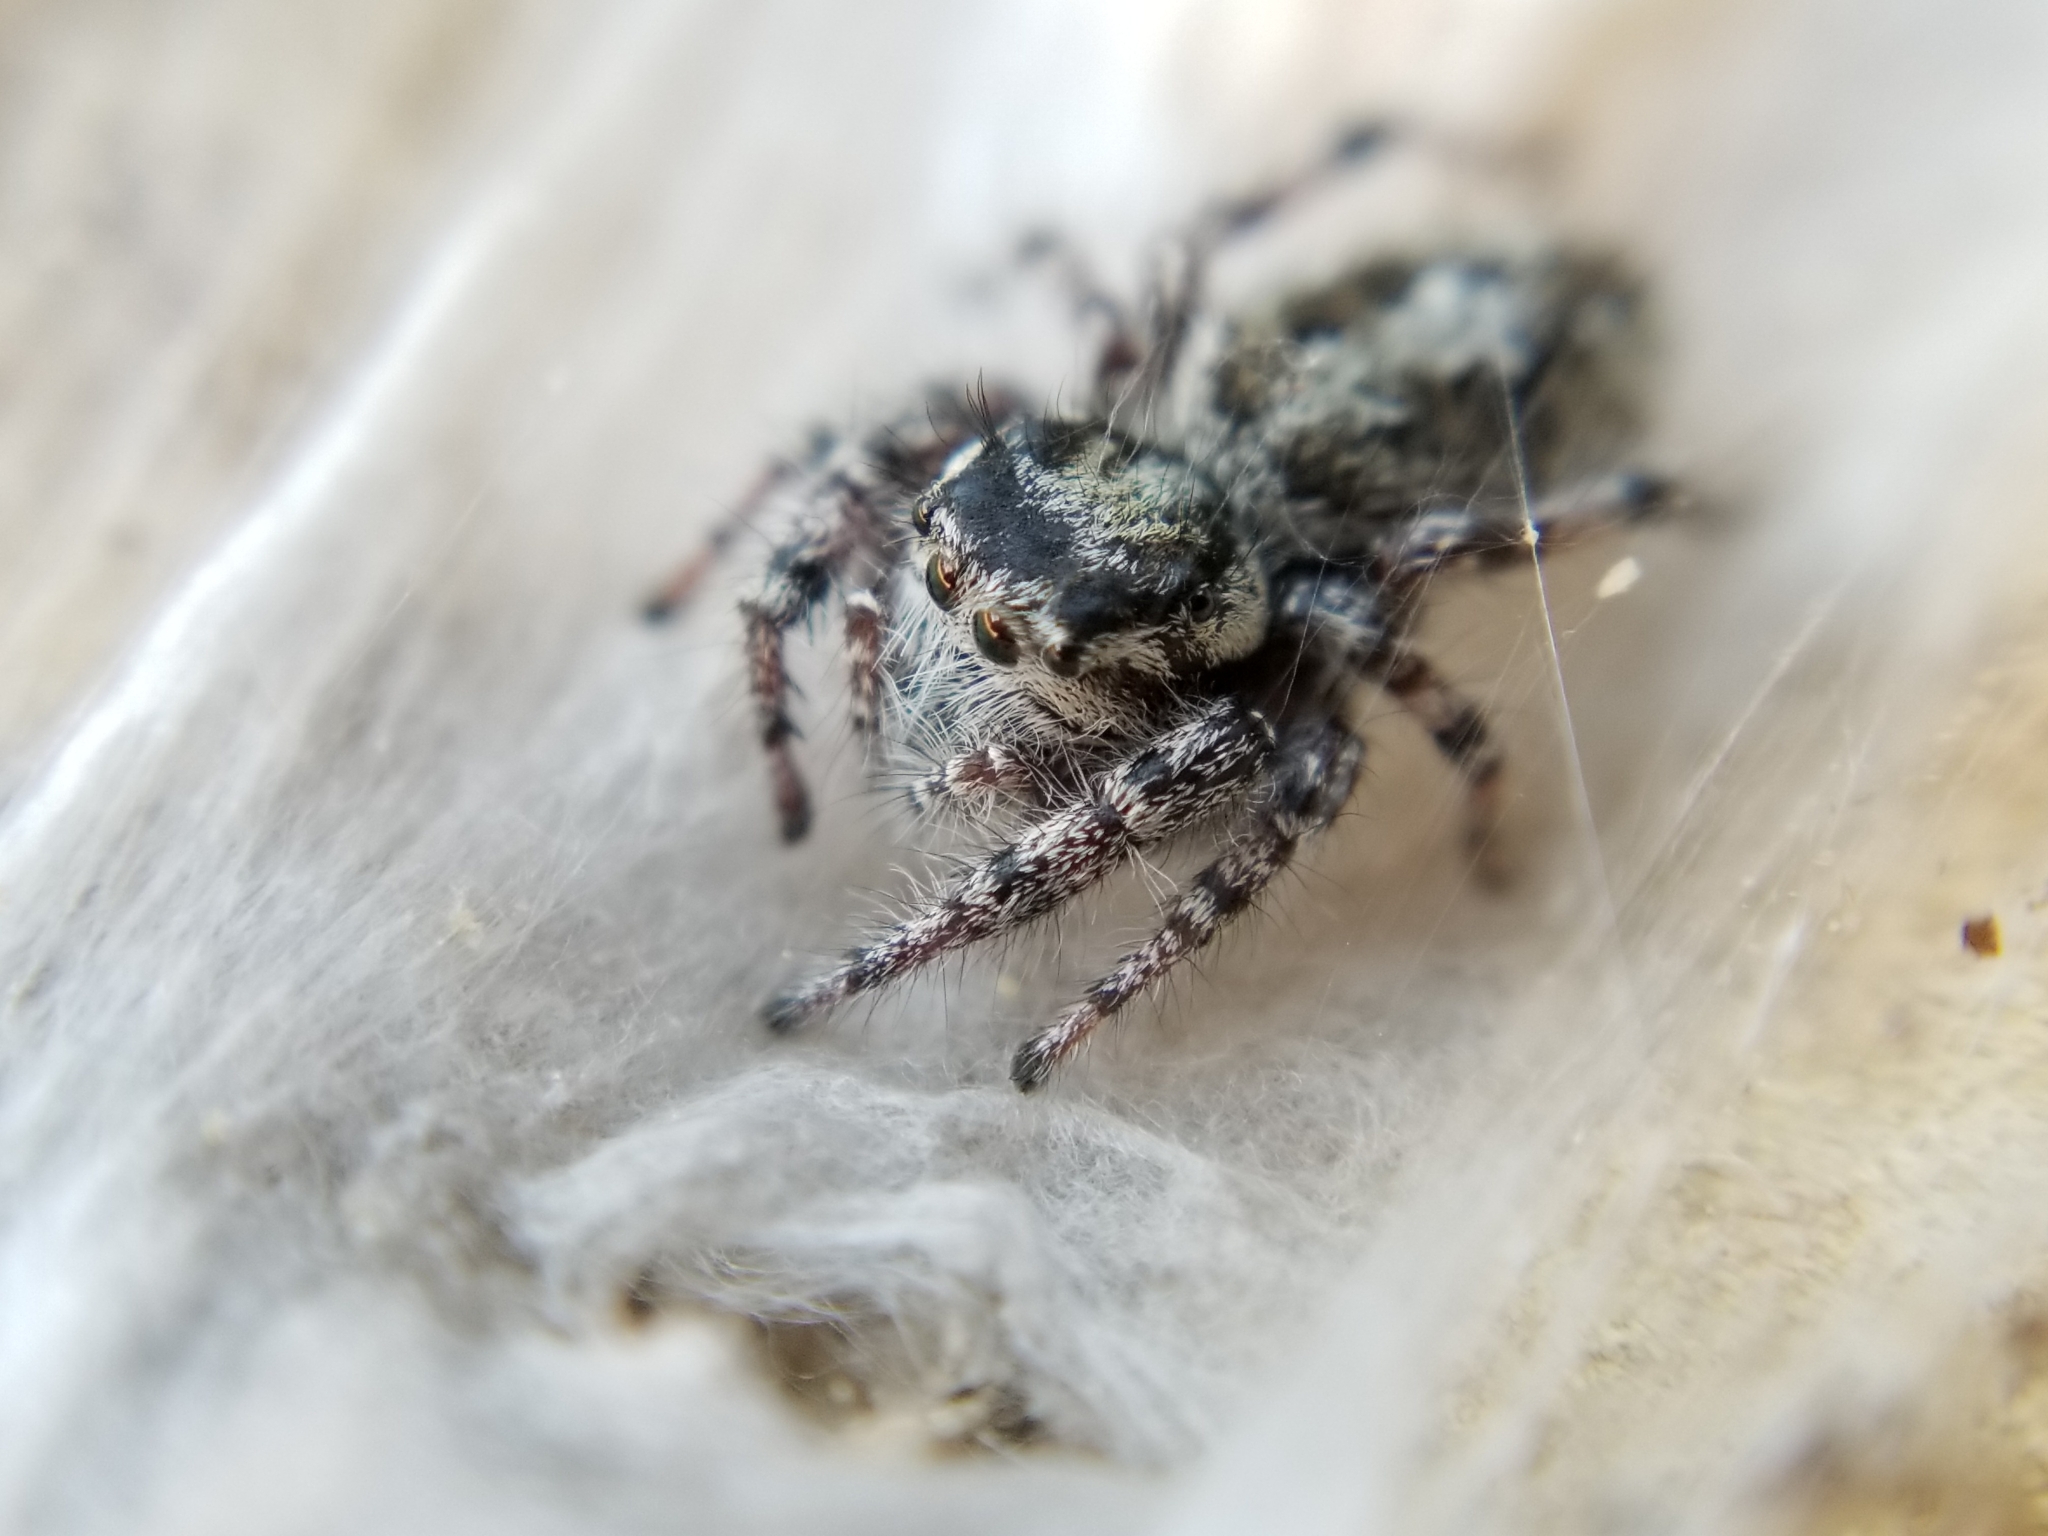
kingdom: Animalia
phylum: Arthropoda
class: Arachnida
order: Araneae
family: Salticidae
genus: Phidippus
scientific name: Phidippus asotus
